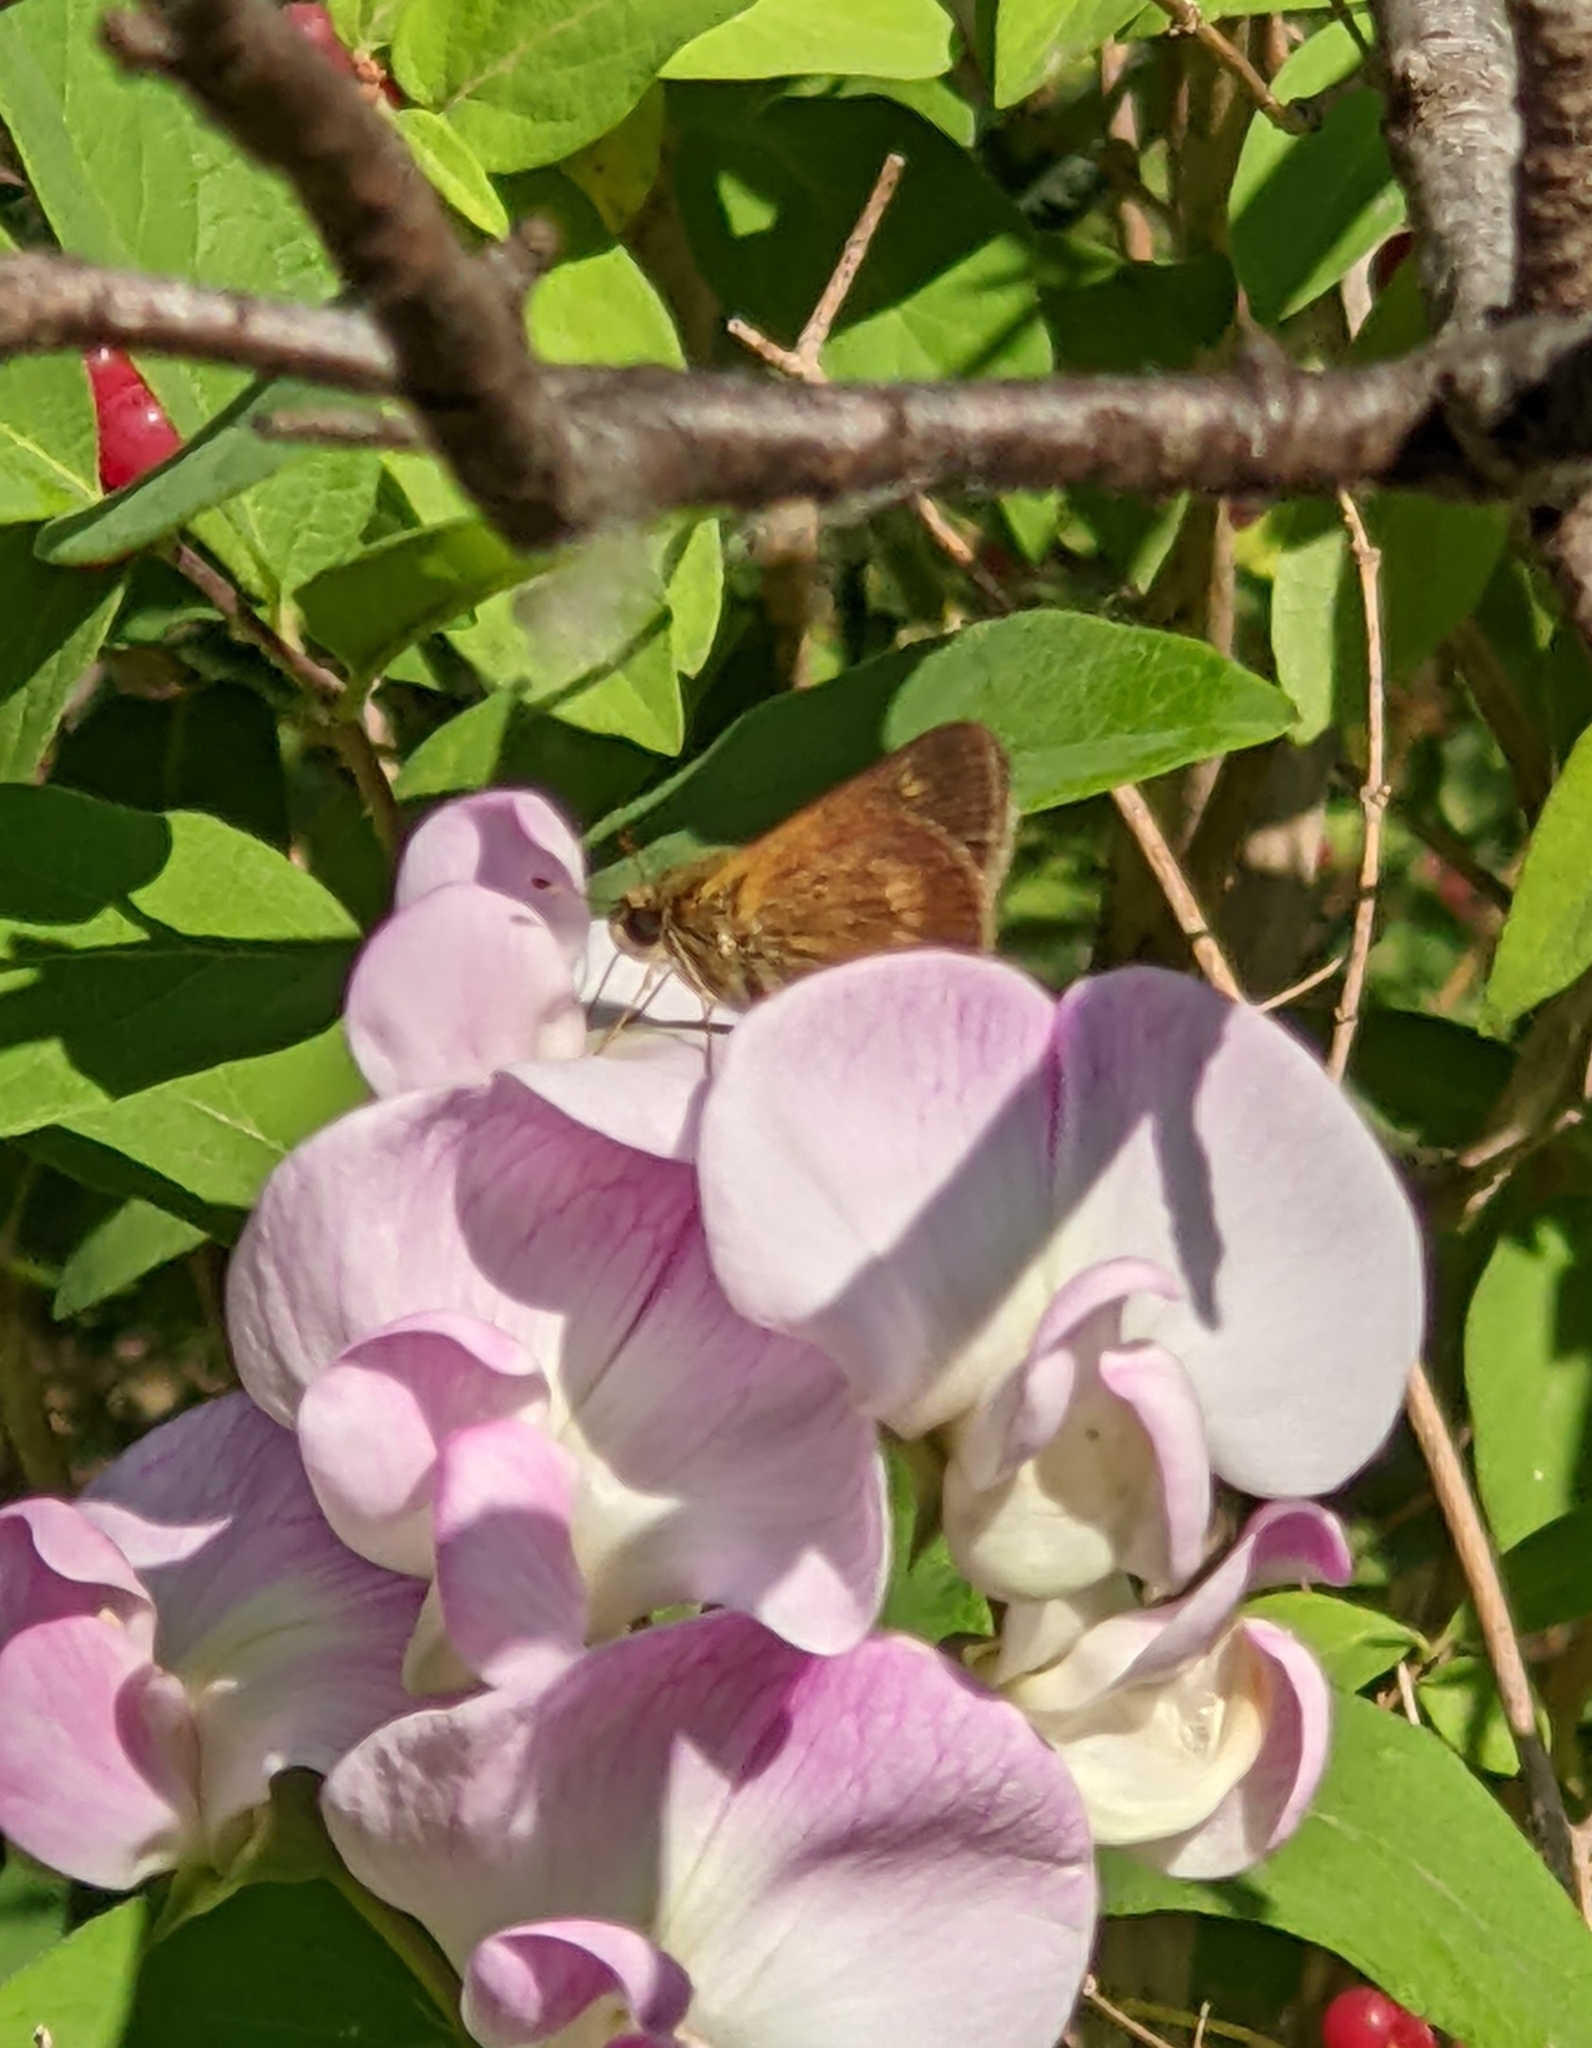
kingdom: Animalia
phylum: Arthropoda
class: Insecta
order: Lepidoptera
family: Hesperiidae
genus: Polites
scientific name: Polites egeremet
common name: Northern broken-dash
